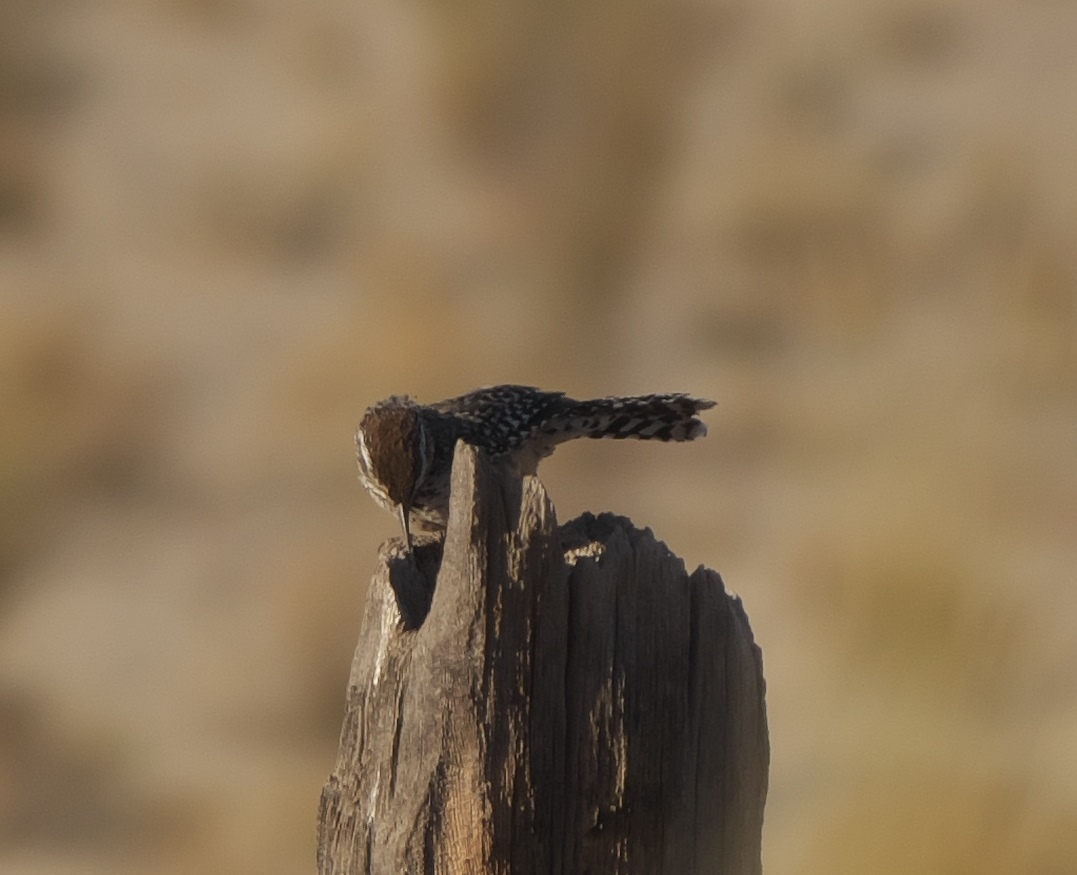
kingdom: Animalia
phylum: Chordata
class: Aves
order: Passeriformes
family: Troglodytidae
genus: Campylorhynchus
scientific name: Campylorhynchus brunneicapillus
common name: Cactus wren
